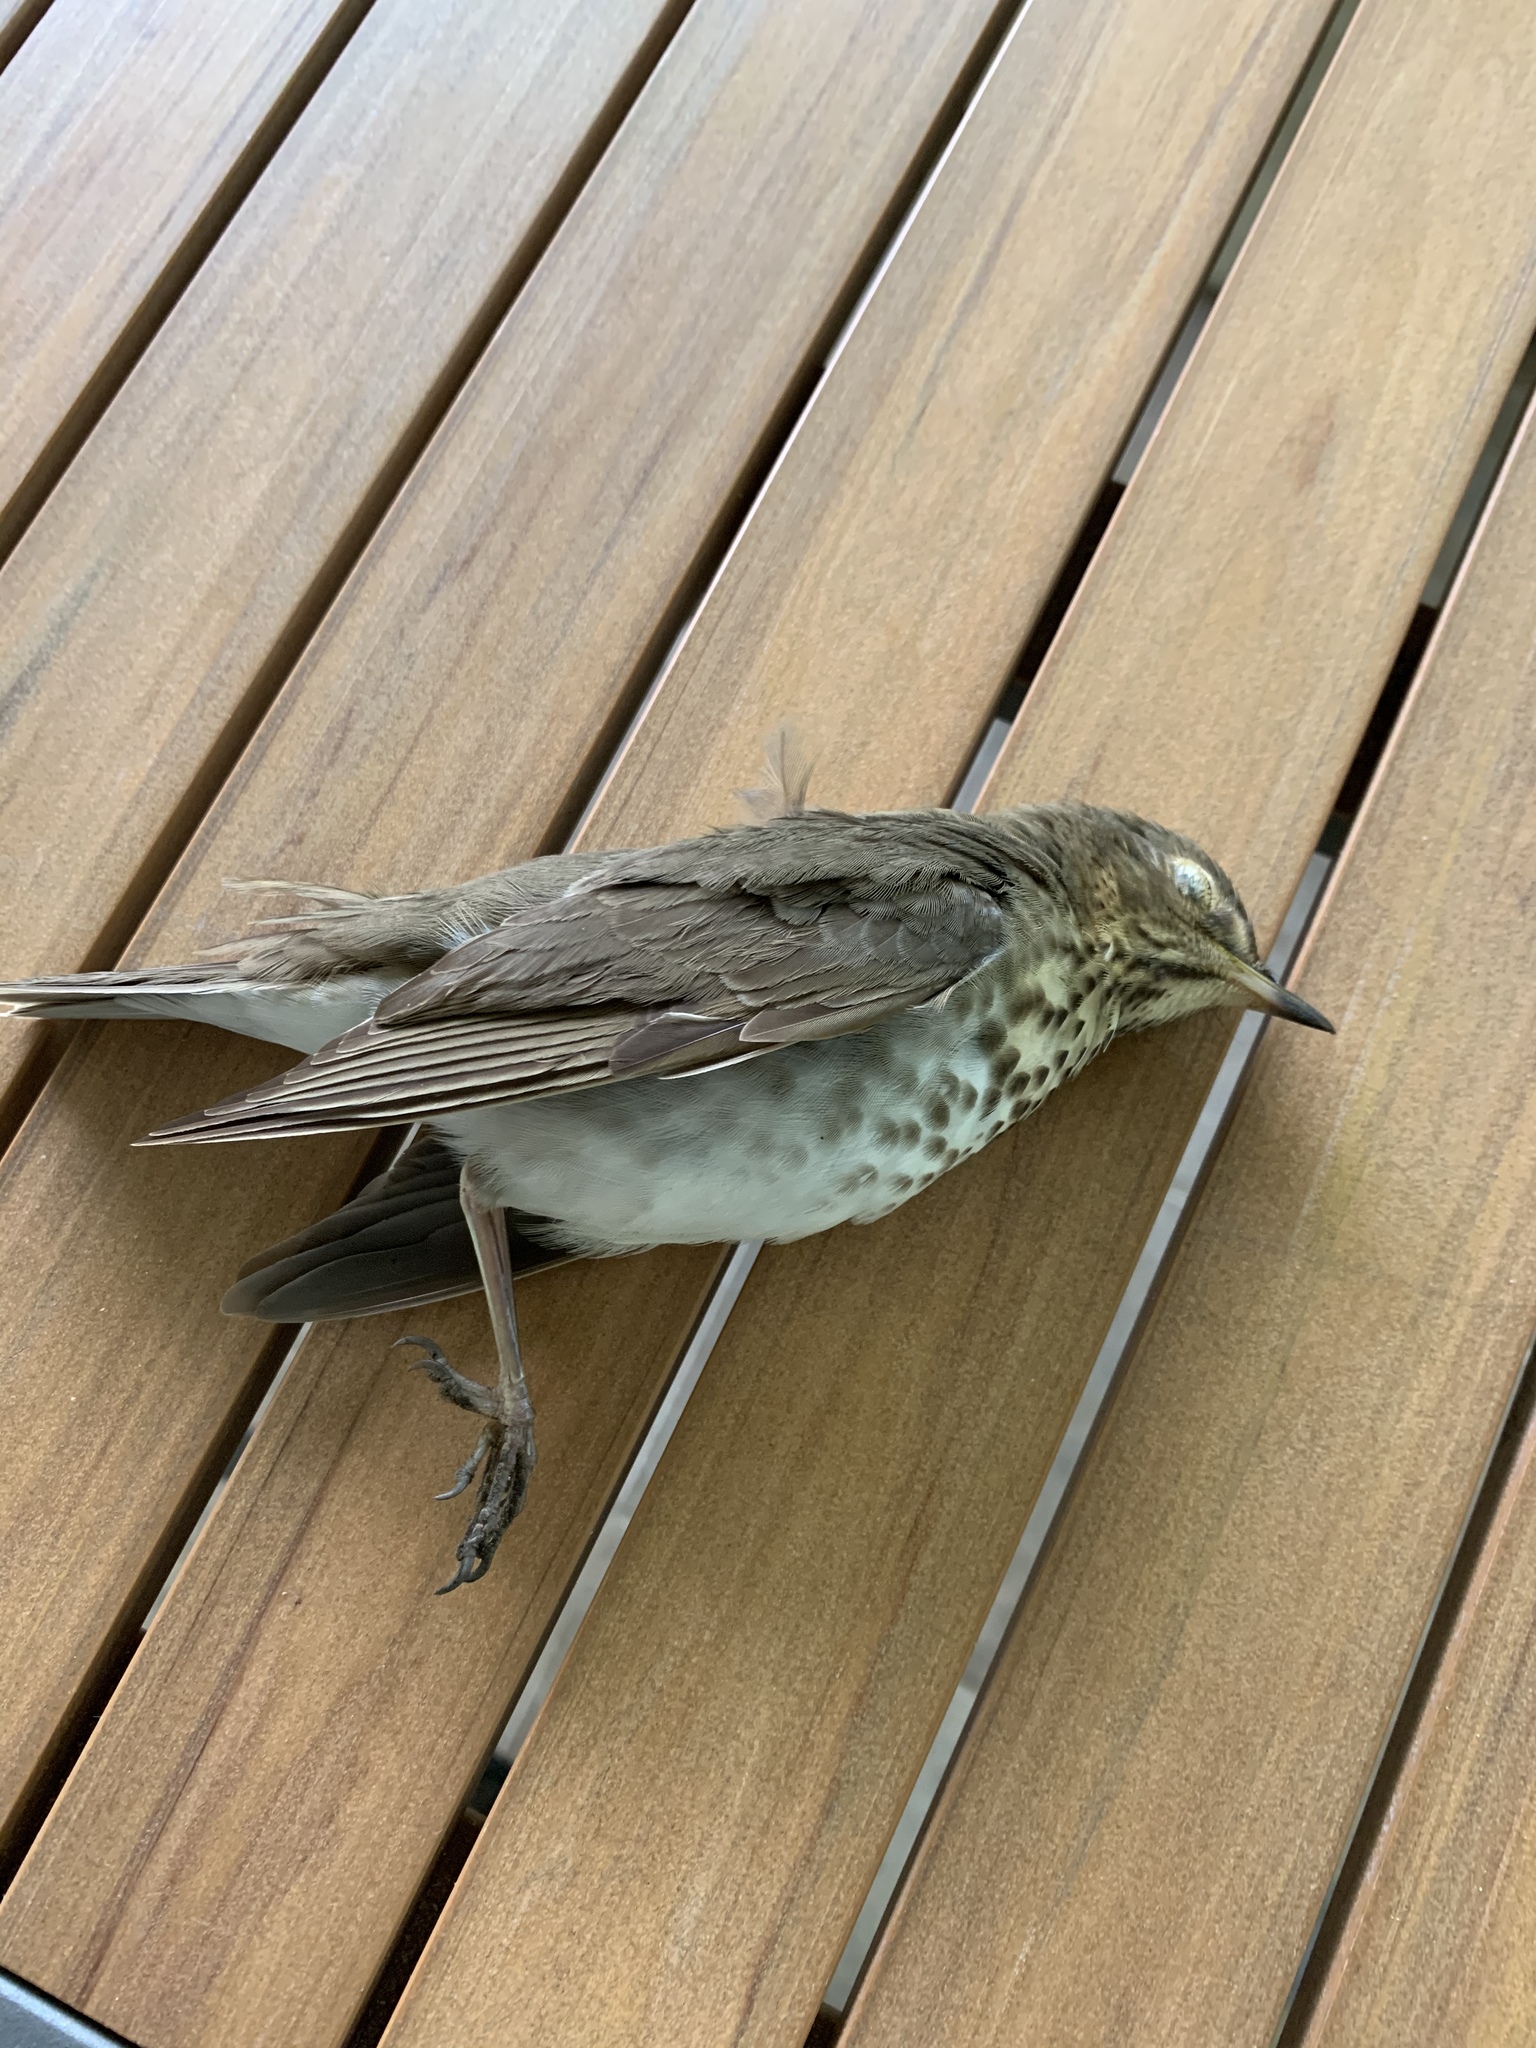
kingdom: Animalia
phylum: Chordata
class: Aves
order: Passeriformes
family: Turdidae
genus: Catharus
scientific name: Catharus ustulatus
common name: Swainson's thrush
